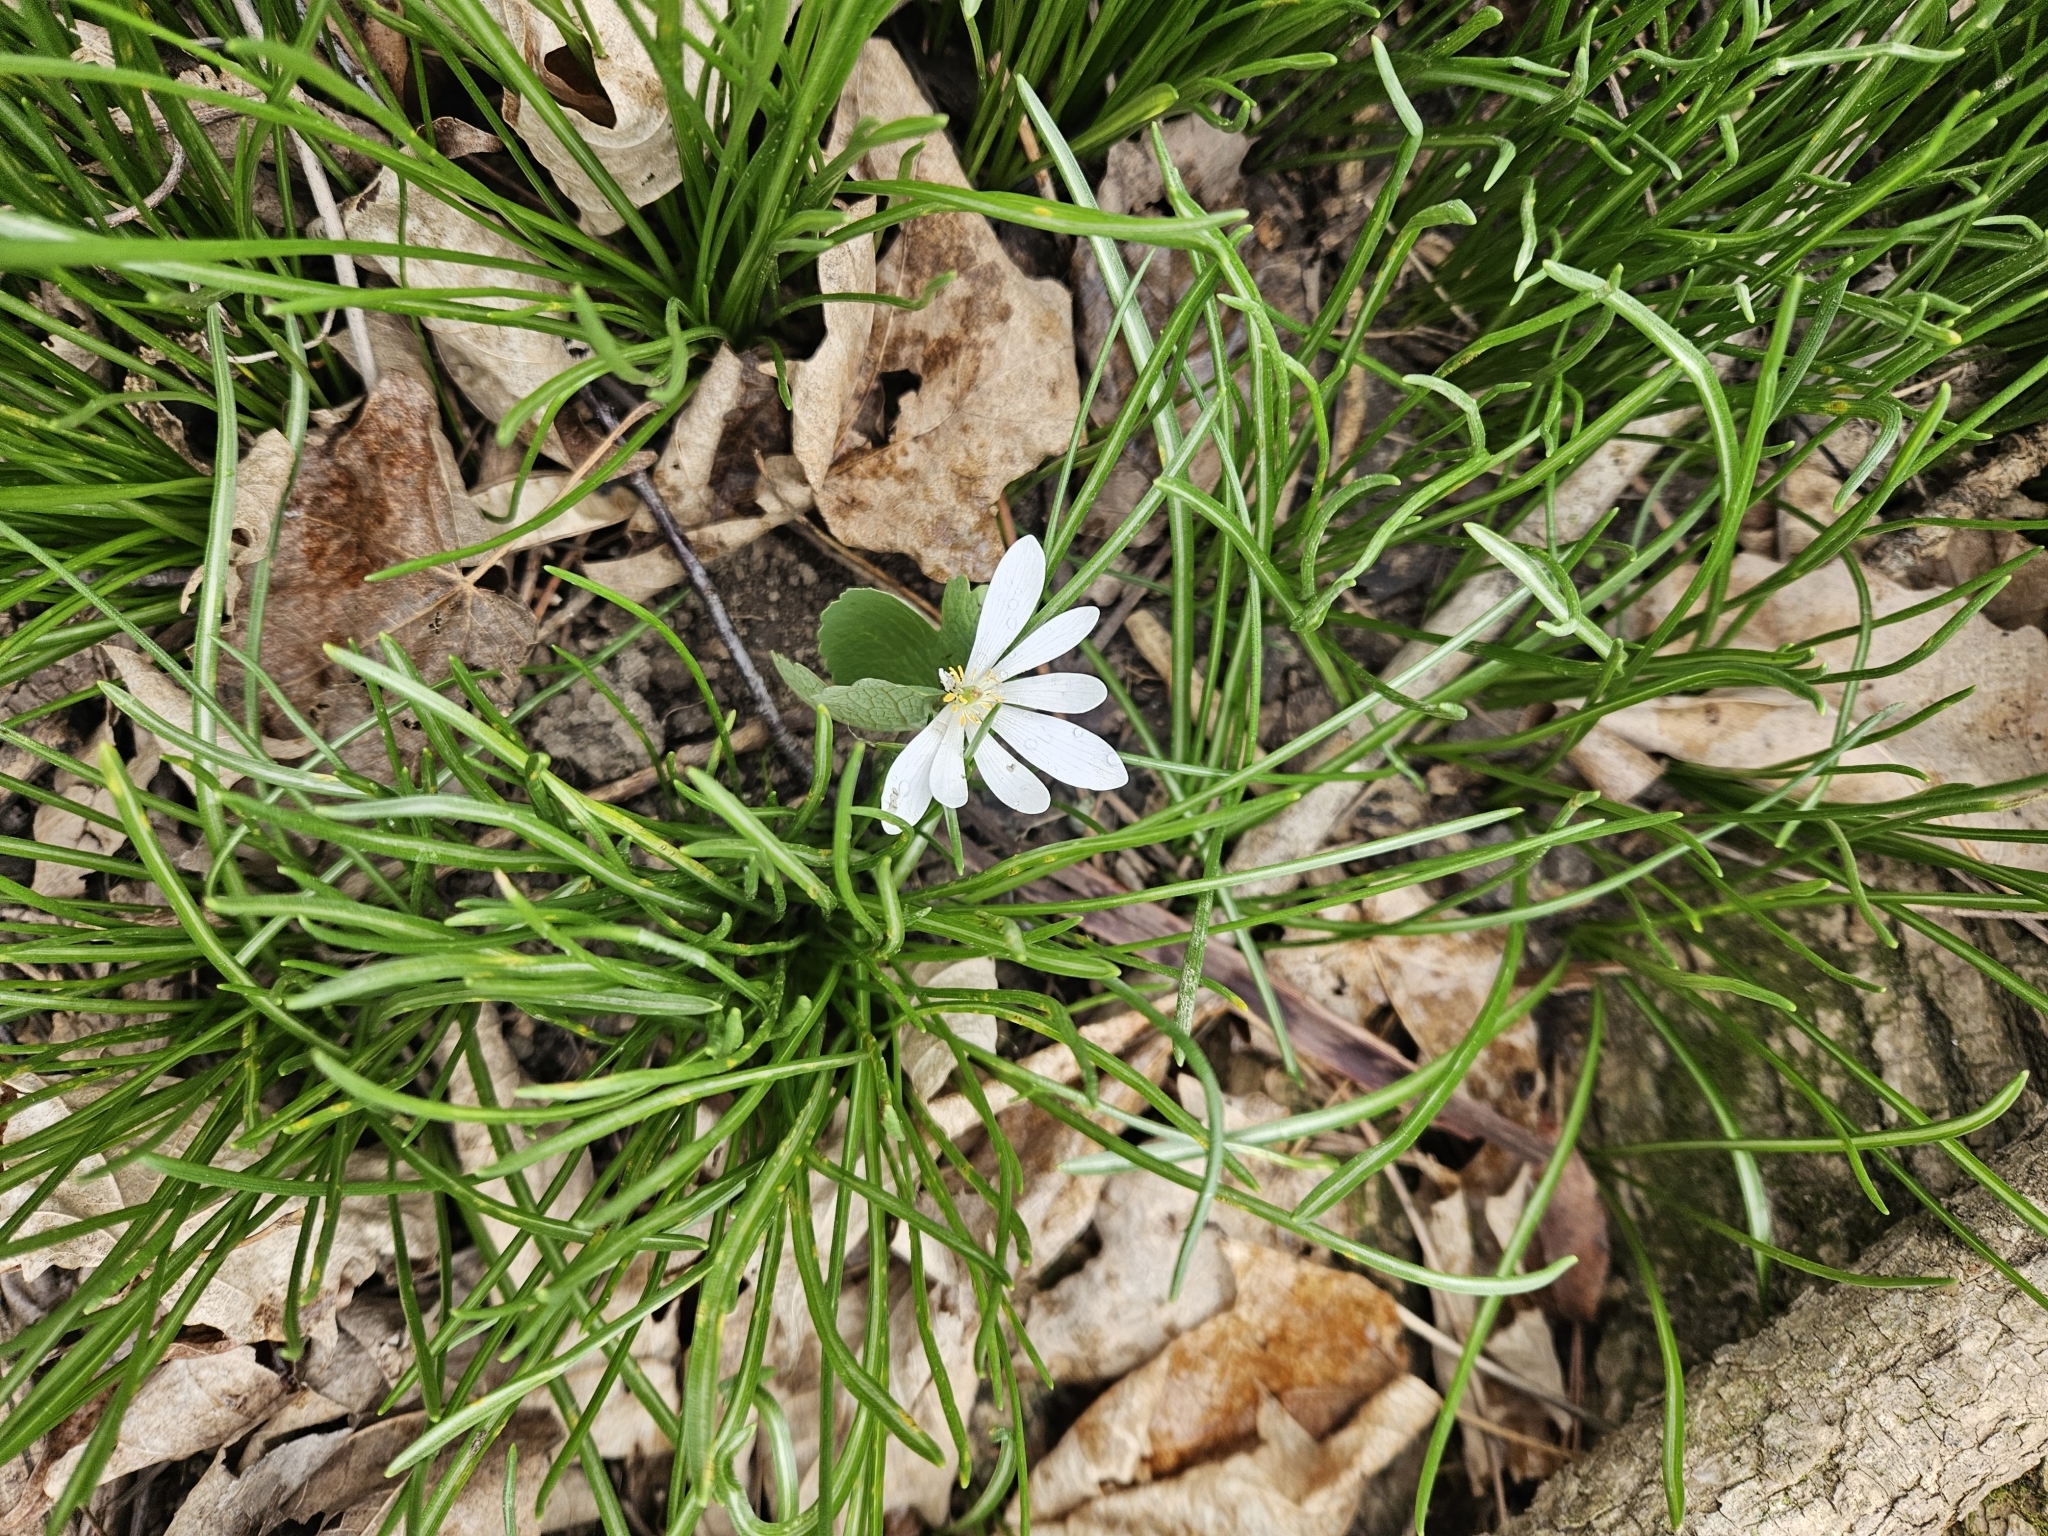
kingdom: Plantae
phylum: Tracheophyta
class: Magnoliopsida
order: Ranunculales
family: Papaveraceae
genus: Sanguinaria
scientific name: Sanguinaria canadensis
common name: Bloodroot
